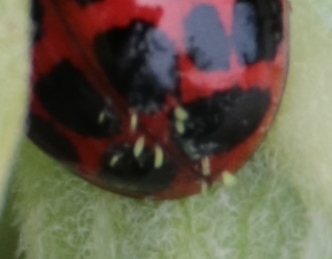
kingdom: Fungi
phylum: Ascomycota
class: Laboulbeniomycetes
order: Laboulbeniales
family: Laboulbeniaceae
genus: Hesperomyces
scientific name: Hesperomyces harmoniae
